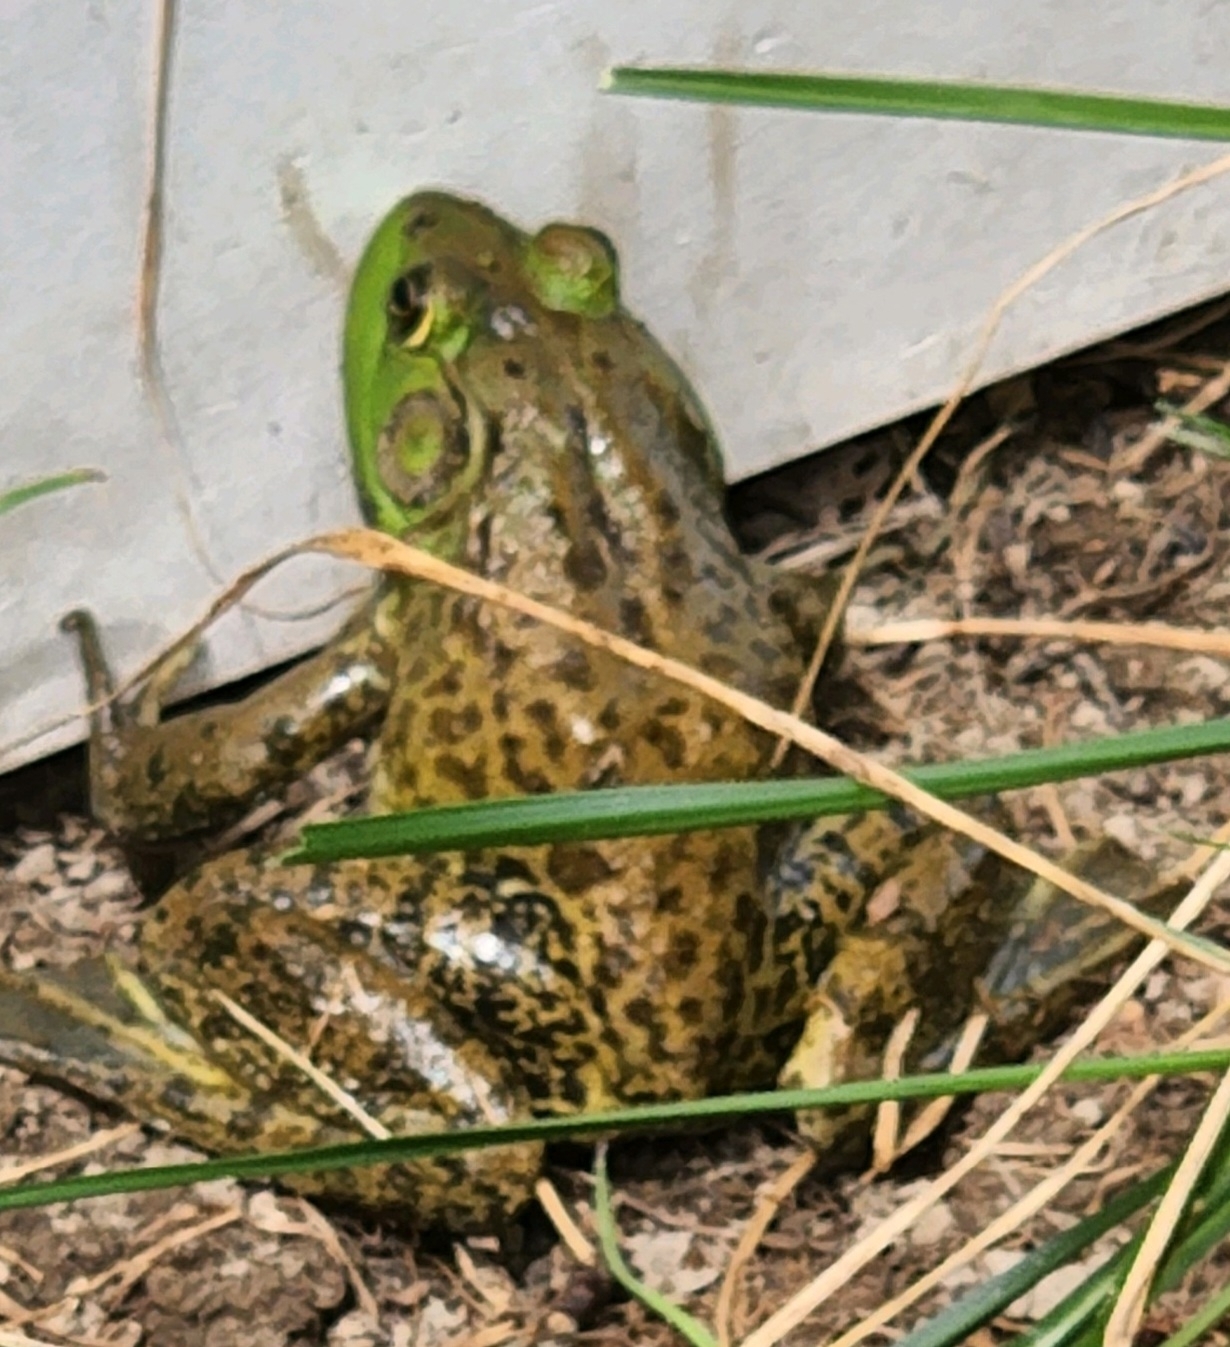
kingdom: Animalia
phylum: Chordata
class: Amphibia
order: Anura
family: Ranidae
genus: Lithobates
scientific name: Lithobates catesbeianus
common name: American bullfrog
